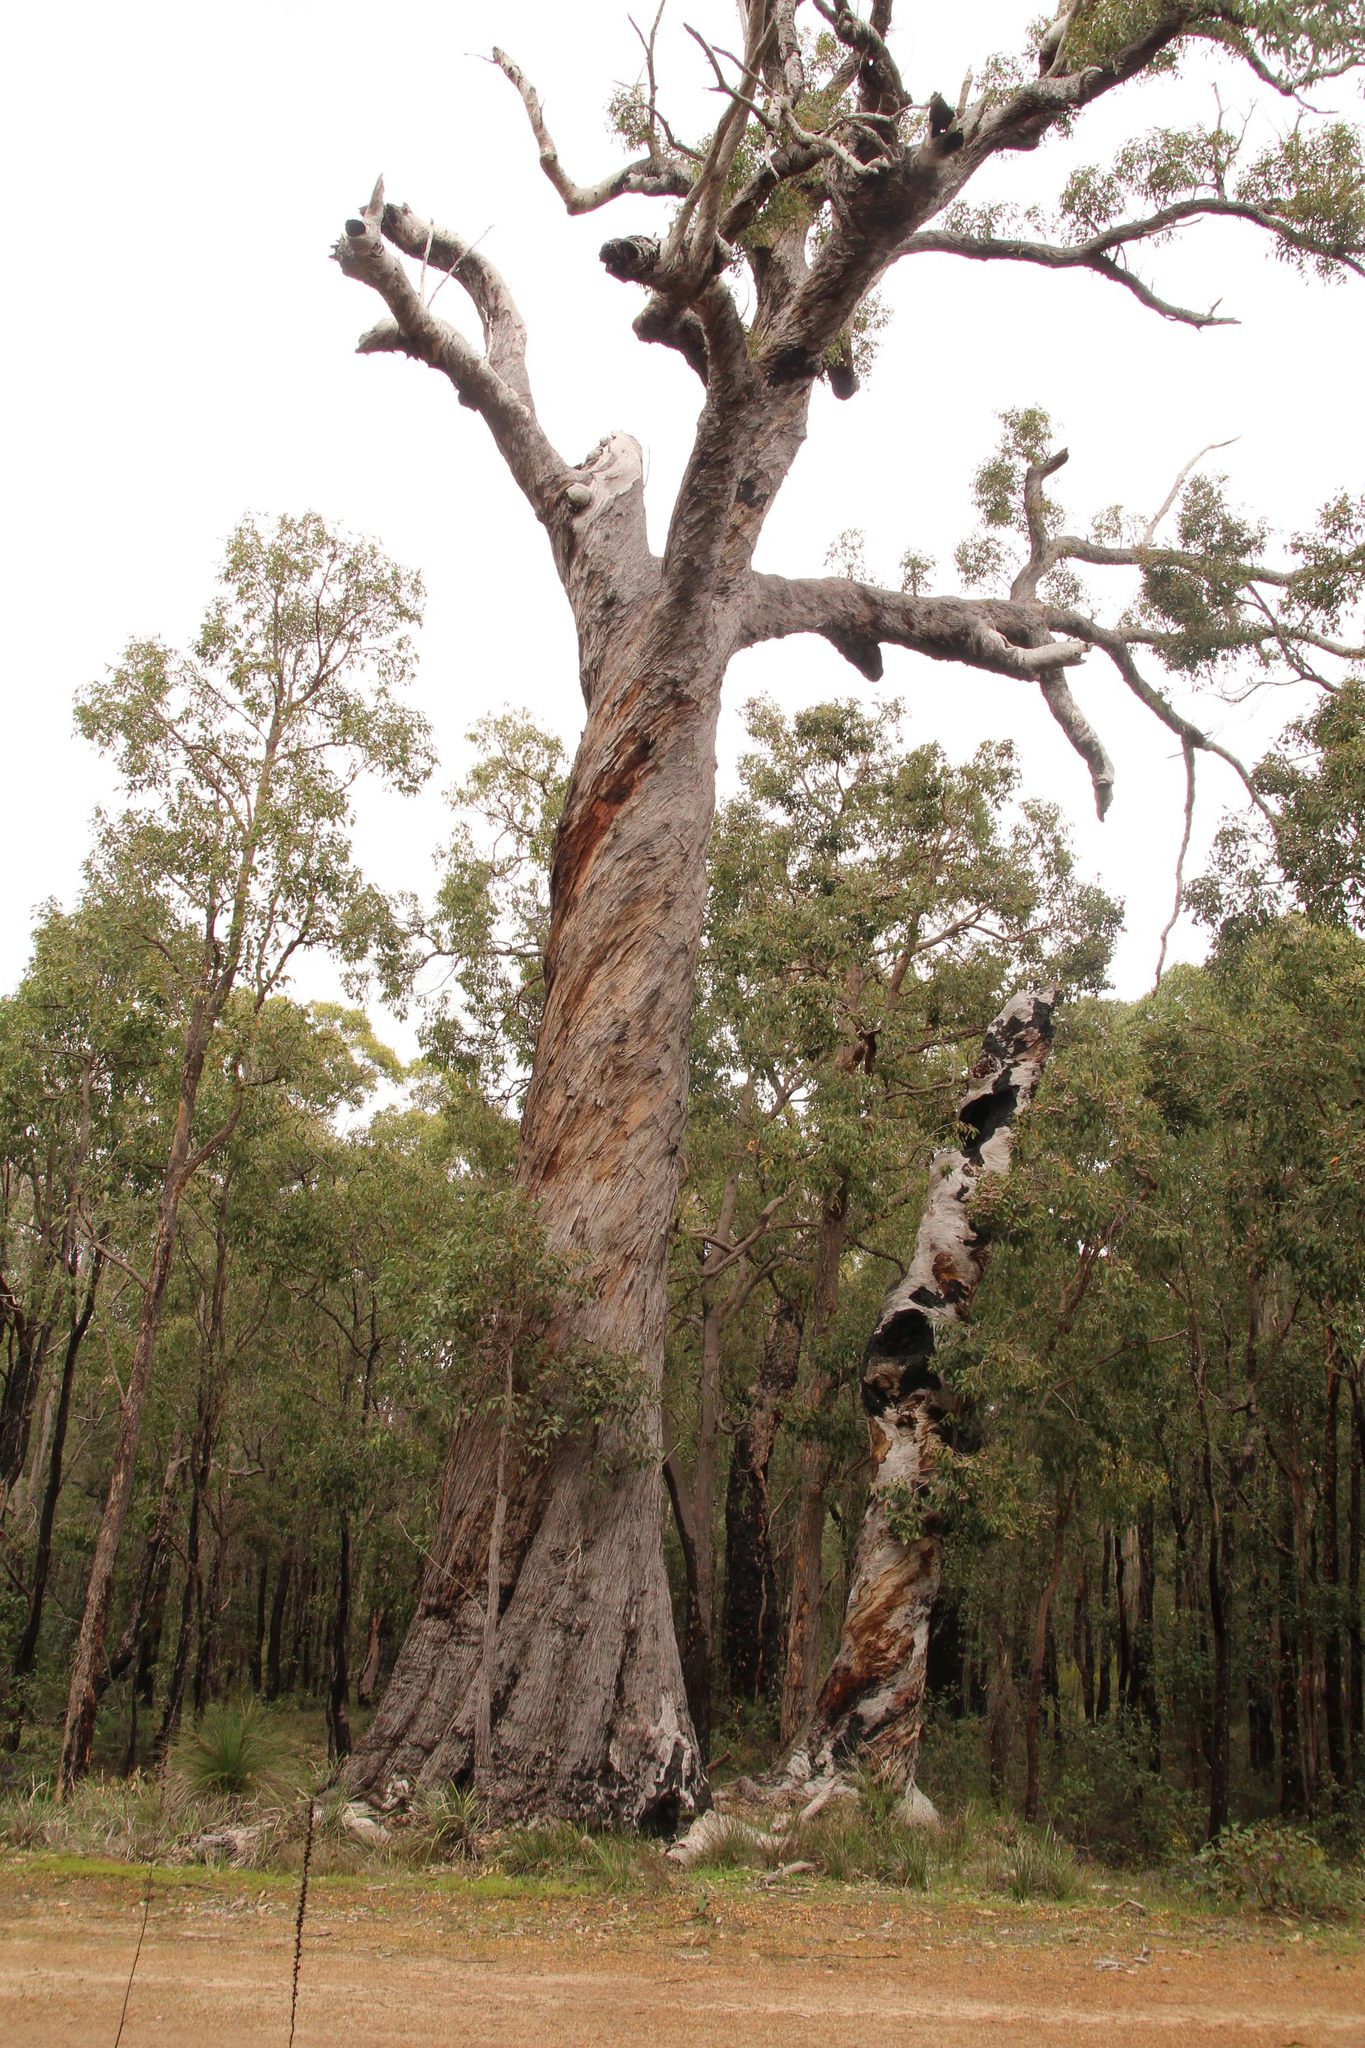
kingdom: Plantae
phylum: Tracheophyta
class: Magnoliopsida
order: Myrtales
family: Myrtaceae
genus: Eucalyptus
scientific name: Eucalyptus marginata
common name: Jarrah
